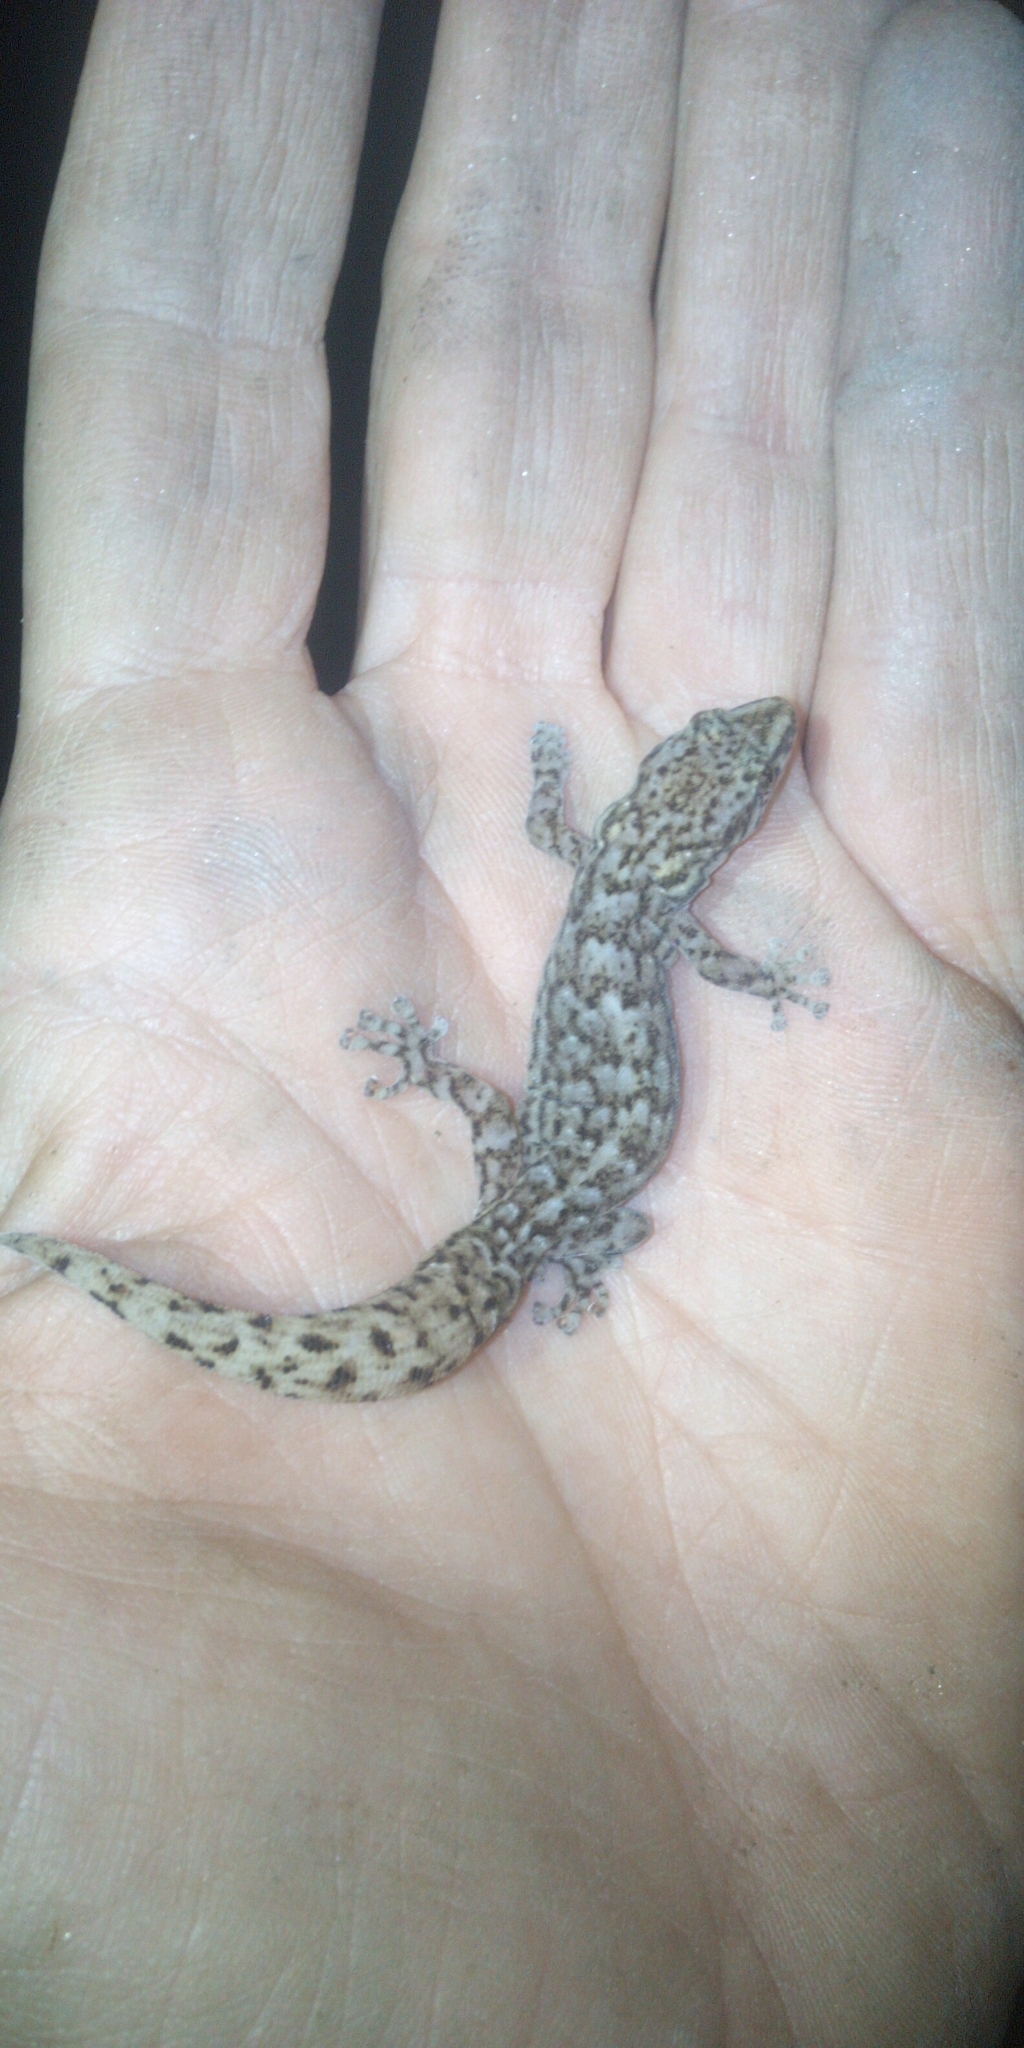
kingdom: Animalia
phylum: Chordata
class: Squamata
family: Gekkonidae
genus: Afrogecko
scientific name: Afrogecko porphyreus
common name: Marbled leaf-toed gecko
